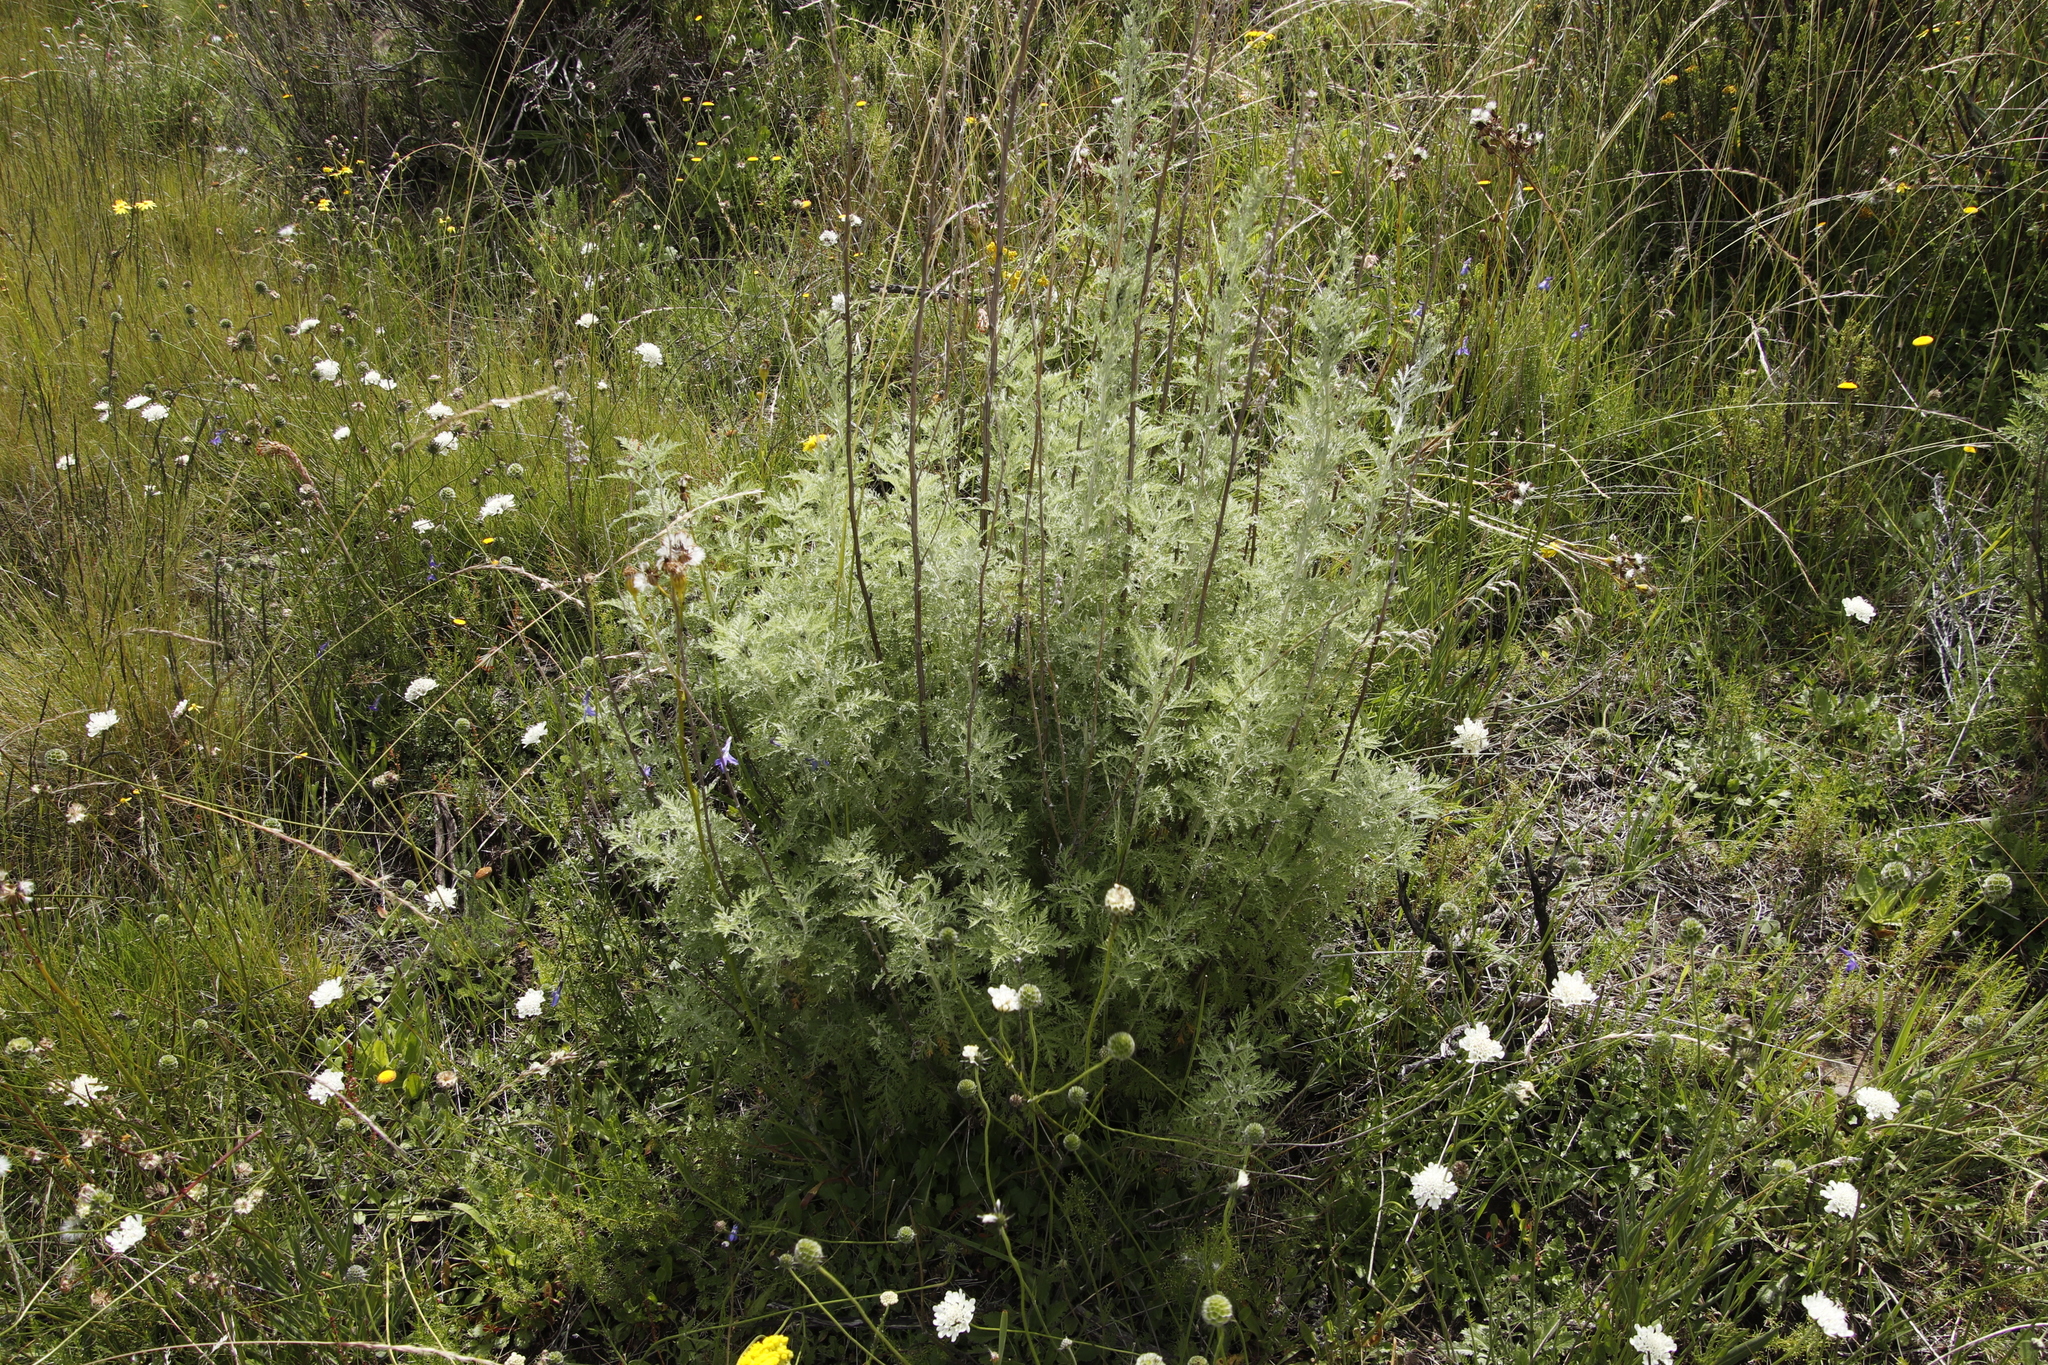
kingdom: Plantae
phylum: Tracheophyta
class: Magnoliopsida
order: Asterales
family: Asteraceae
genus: Artemisia
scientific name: Artemisia afra
